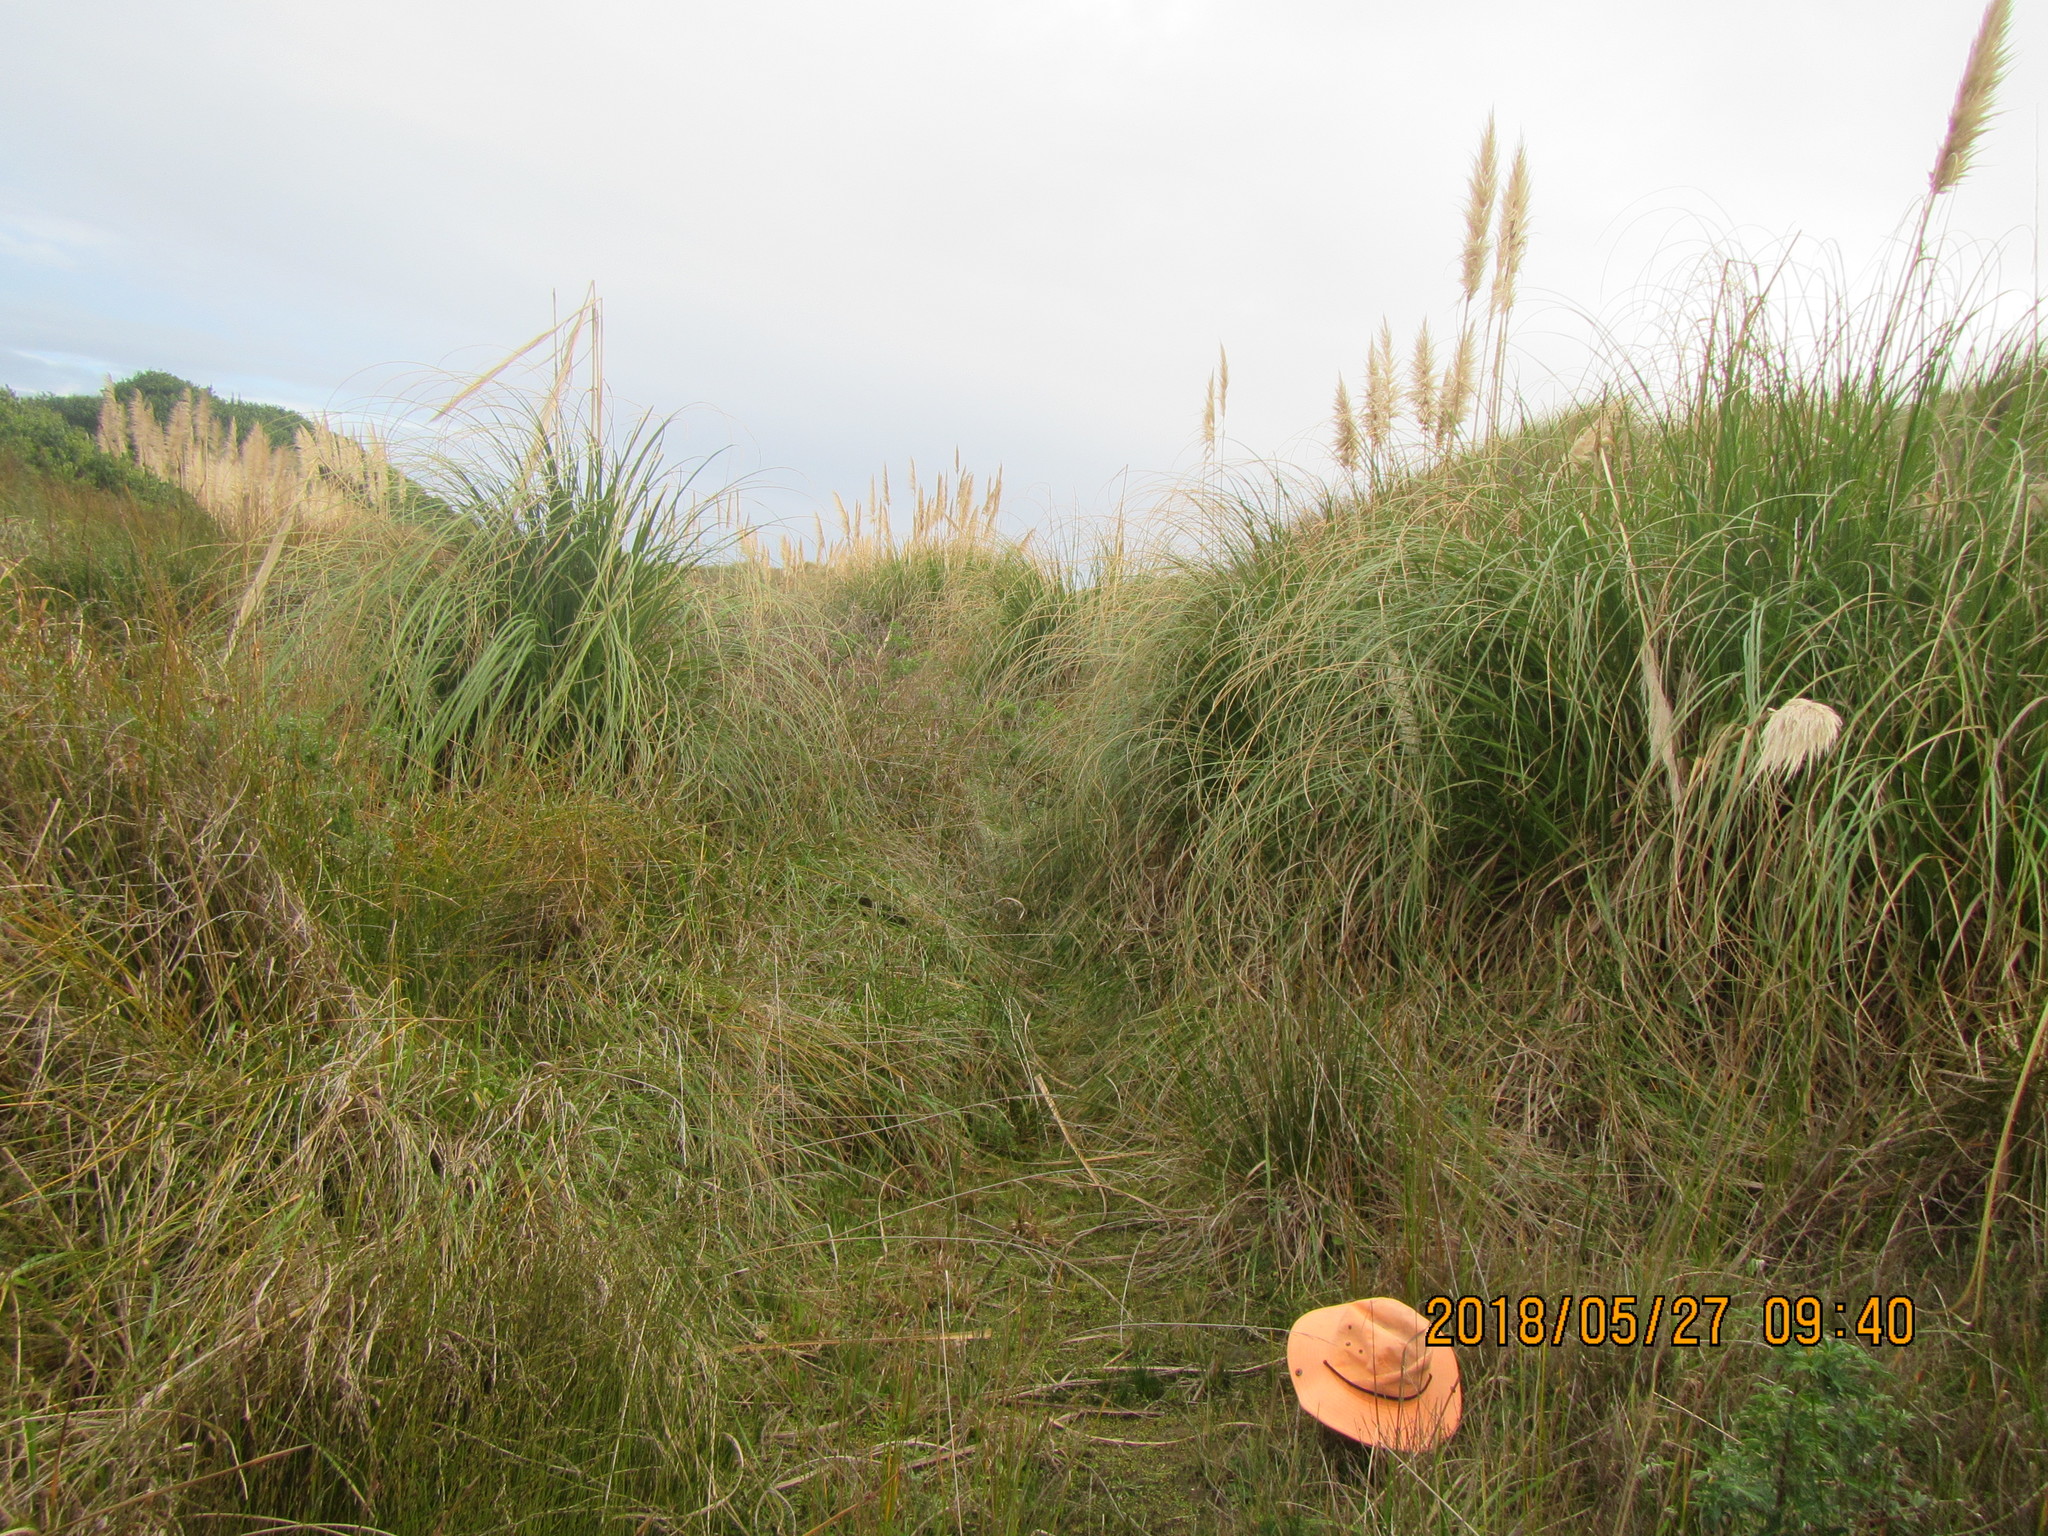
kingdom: Plantae
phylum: Tracheophyta
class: Liliopsida
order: Poales
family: Juncaceae
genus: Juncus
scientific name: Juncus caespiticius
